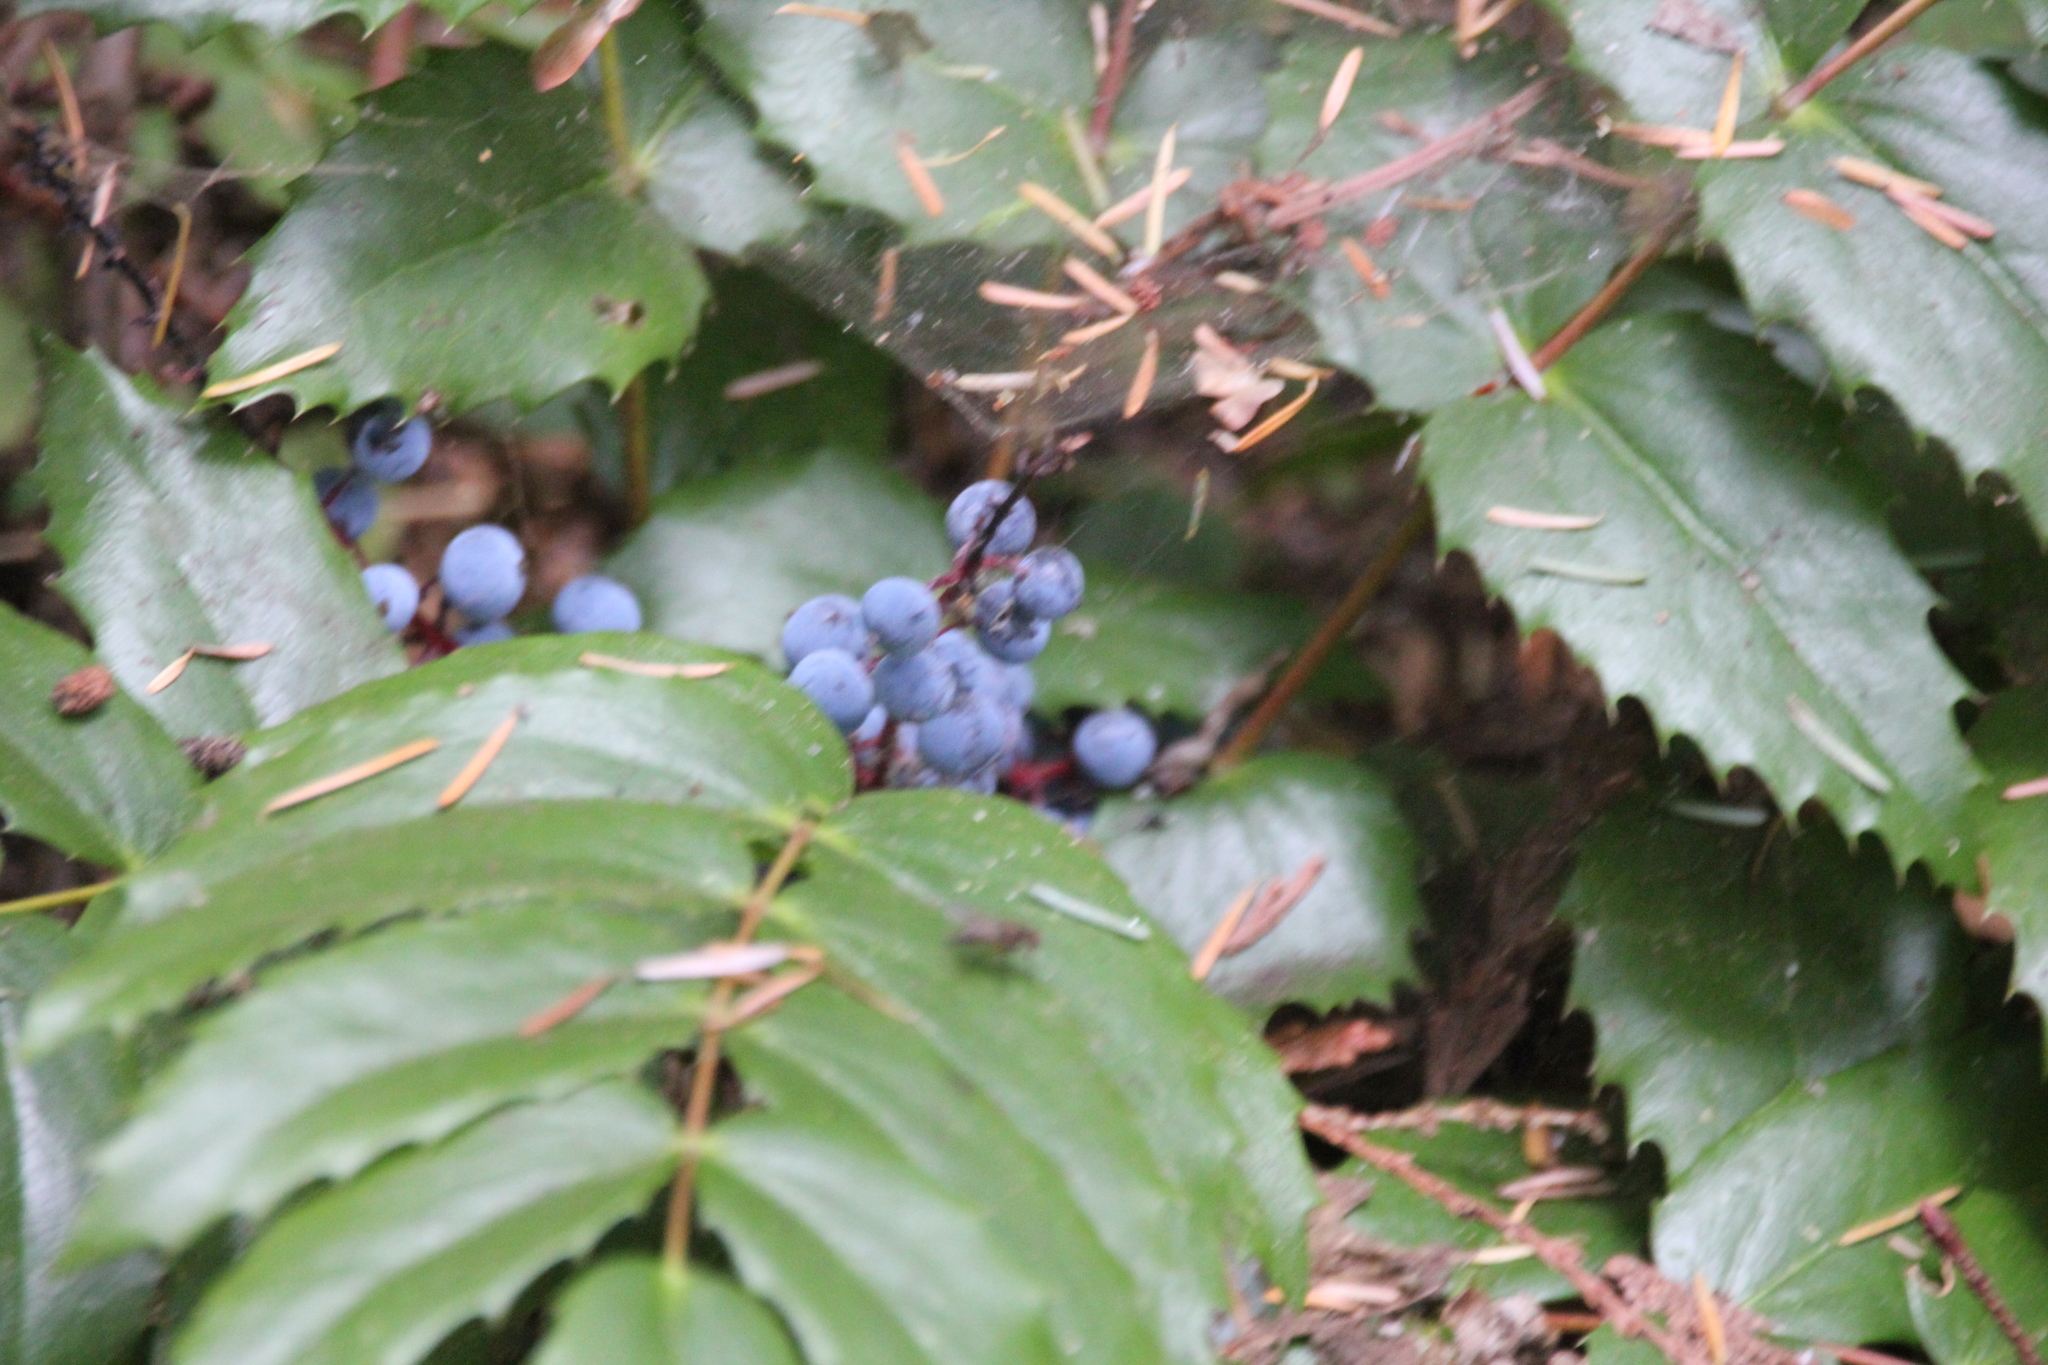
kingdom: Plantae
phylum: Tracheophyta
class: Magnoliopsida
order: Ranunculales
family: Berberidaceae
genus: Mahonia
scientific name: Mahonia nervosa
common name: Cascade oregon-grape
